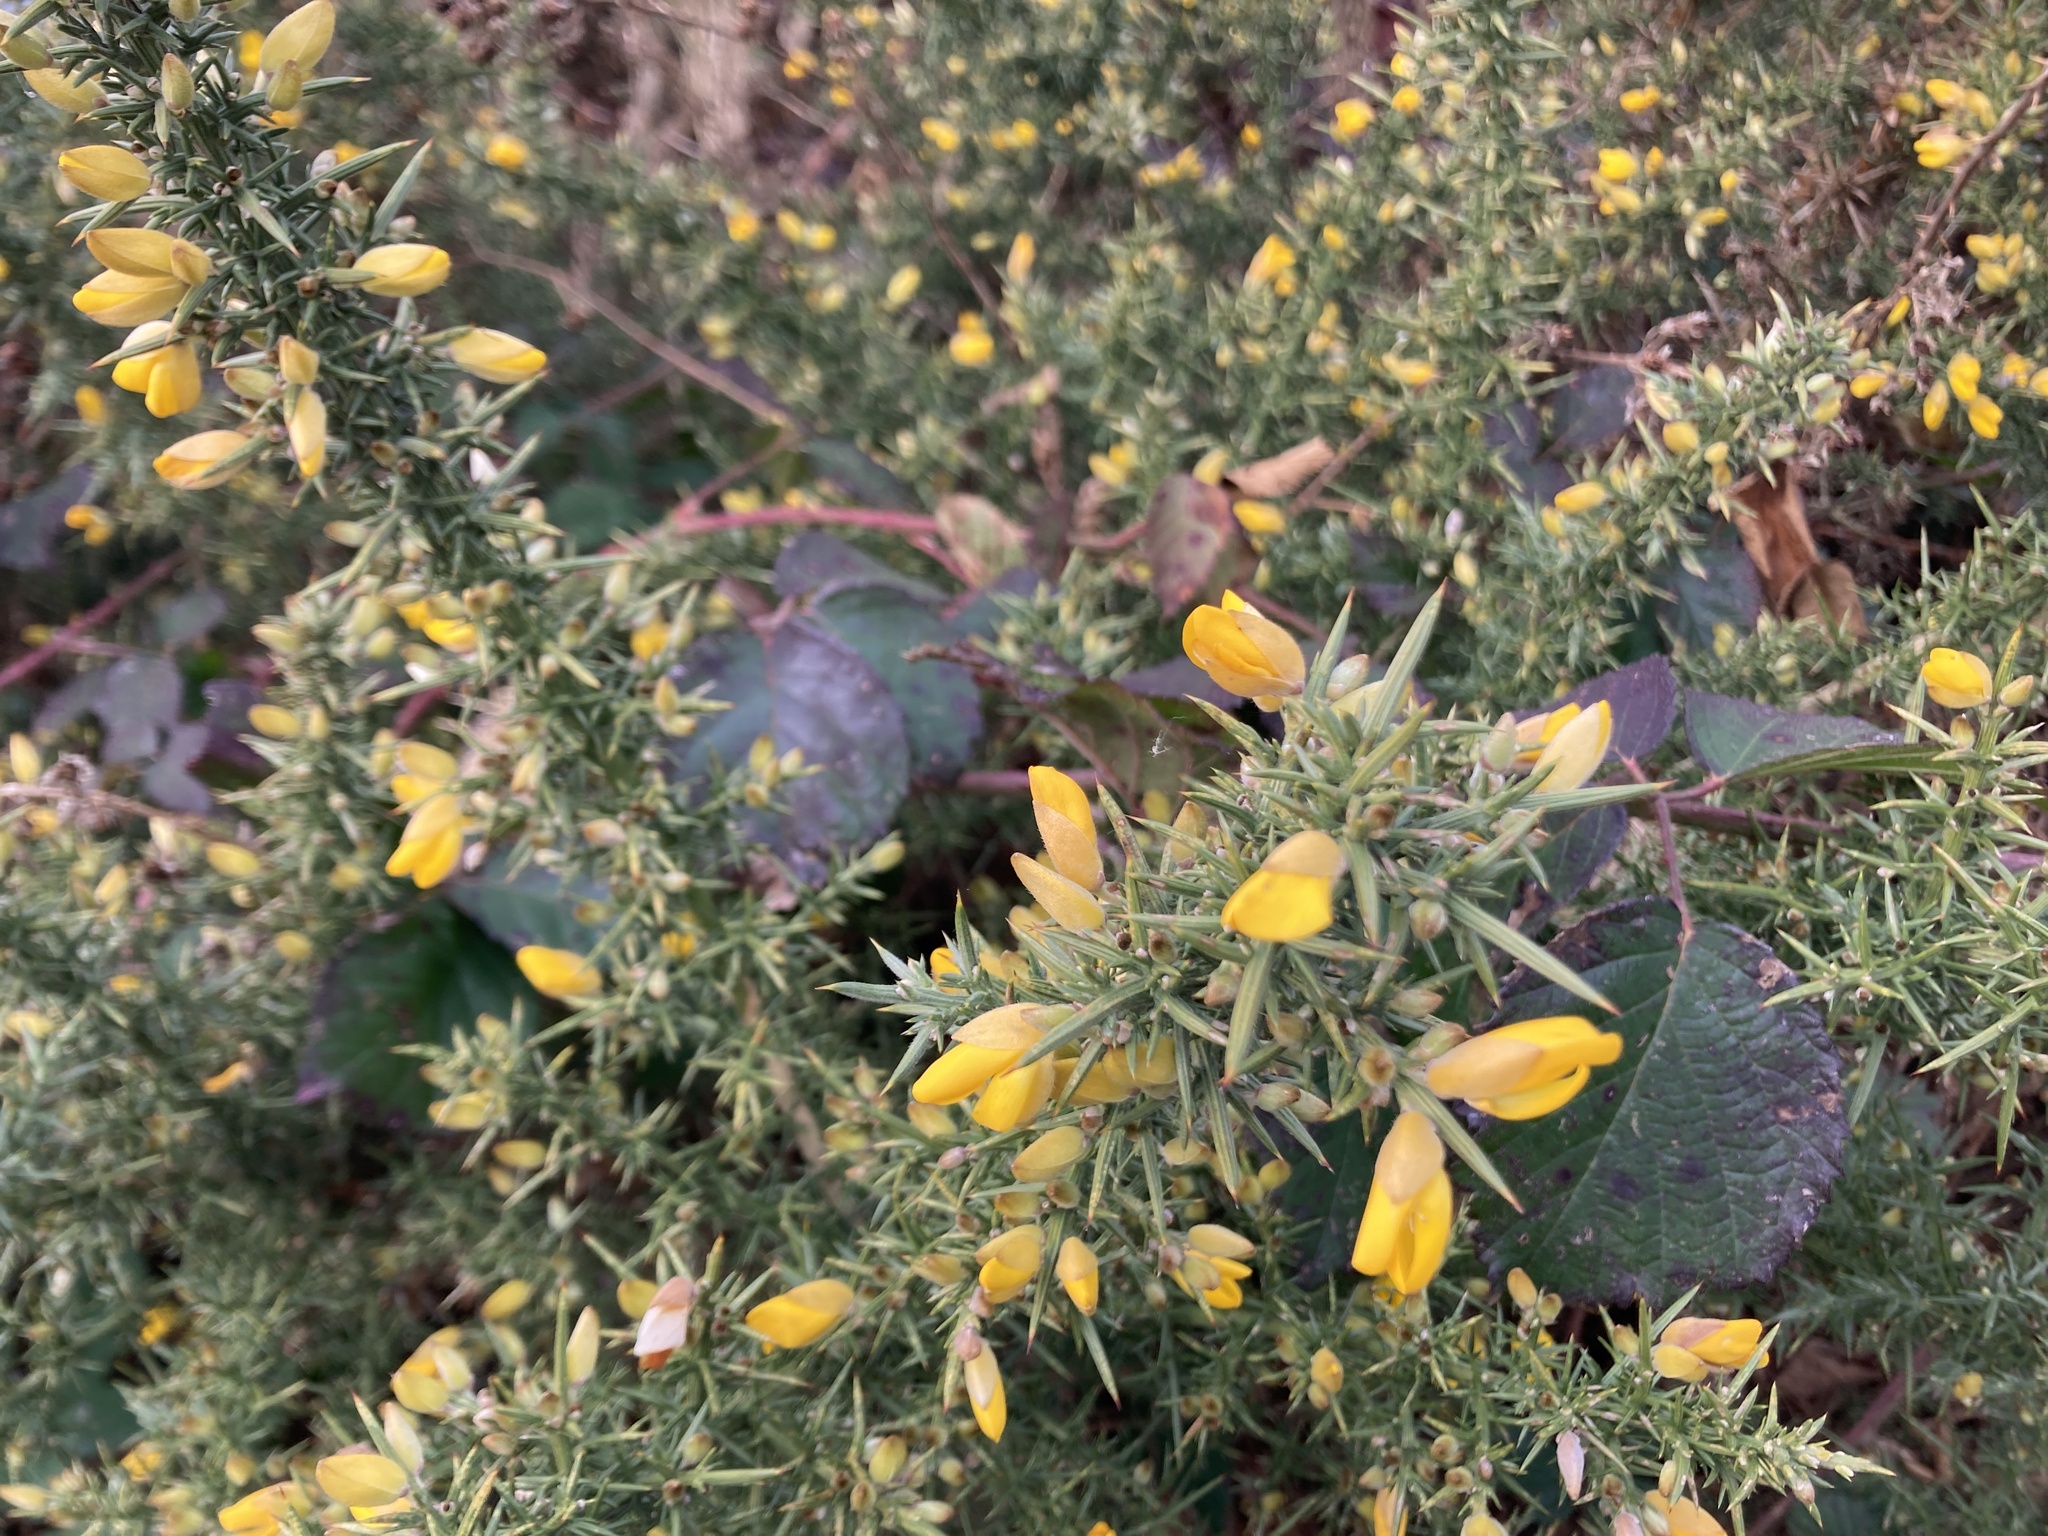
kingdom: Plantae
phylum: Tracheophyta
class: Magnoliopsida
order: Fabales
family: Fabaceae
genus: Ulex
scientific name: Ulex europaeus
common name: Common gorse
